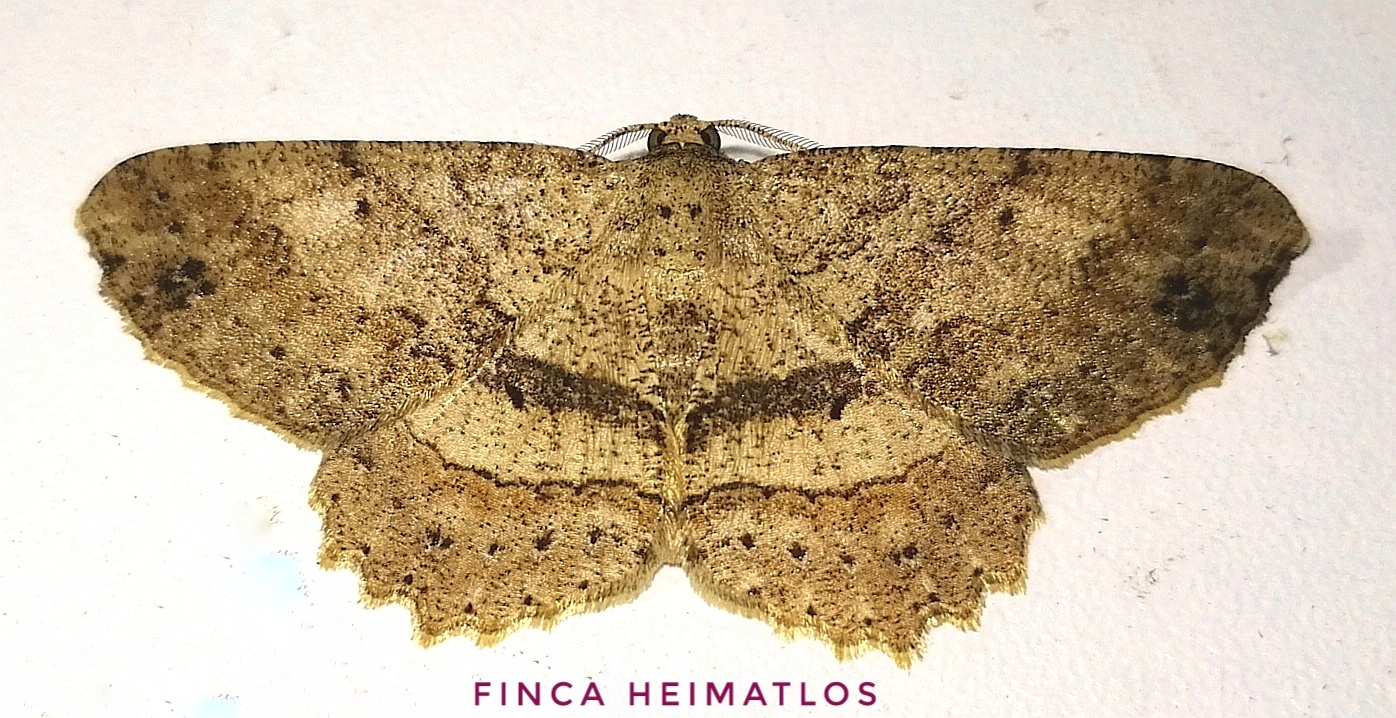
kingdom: Animalia
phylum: Arthropoda
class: Insecta
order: Lepidoptera
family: Geometridae
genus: Melanolophia
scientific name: Melanolophia muscosa
